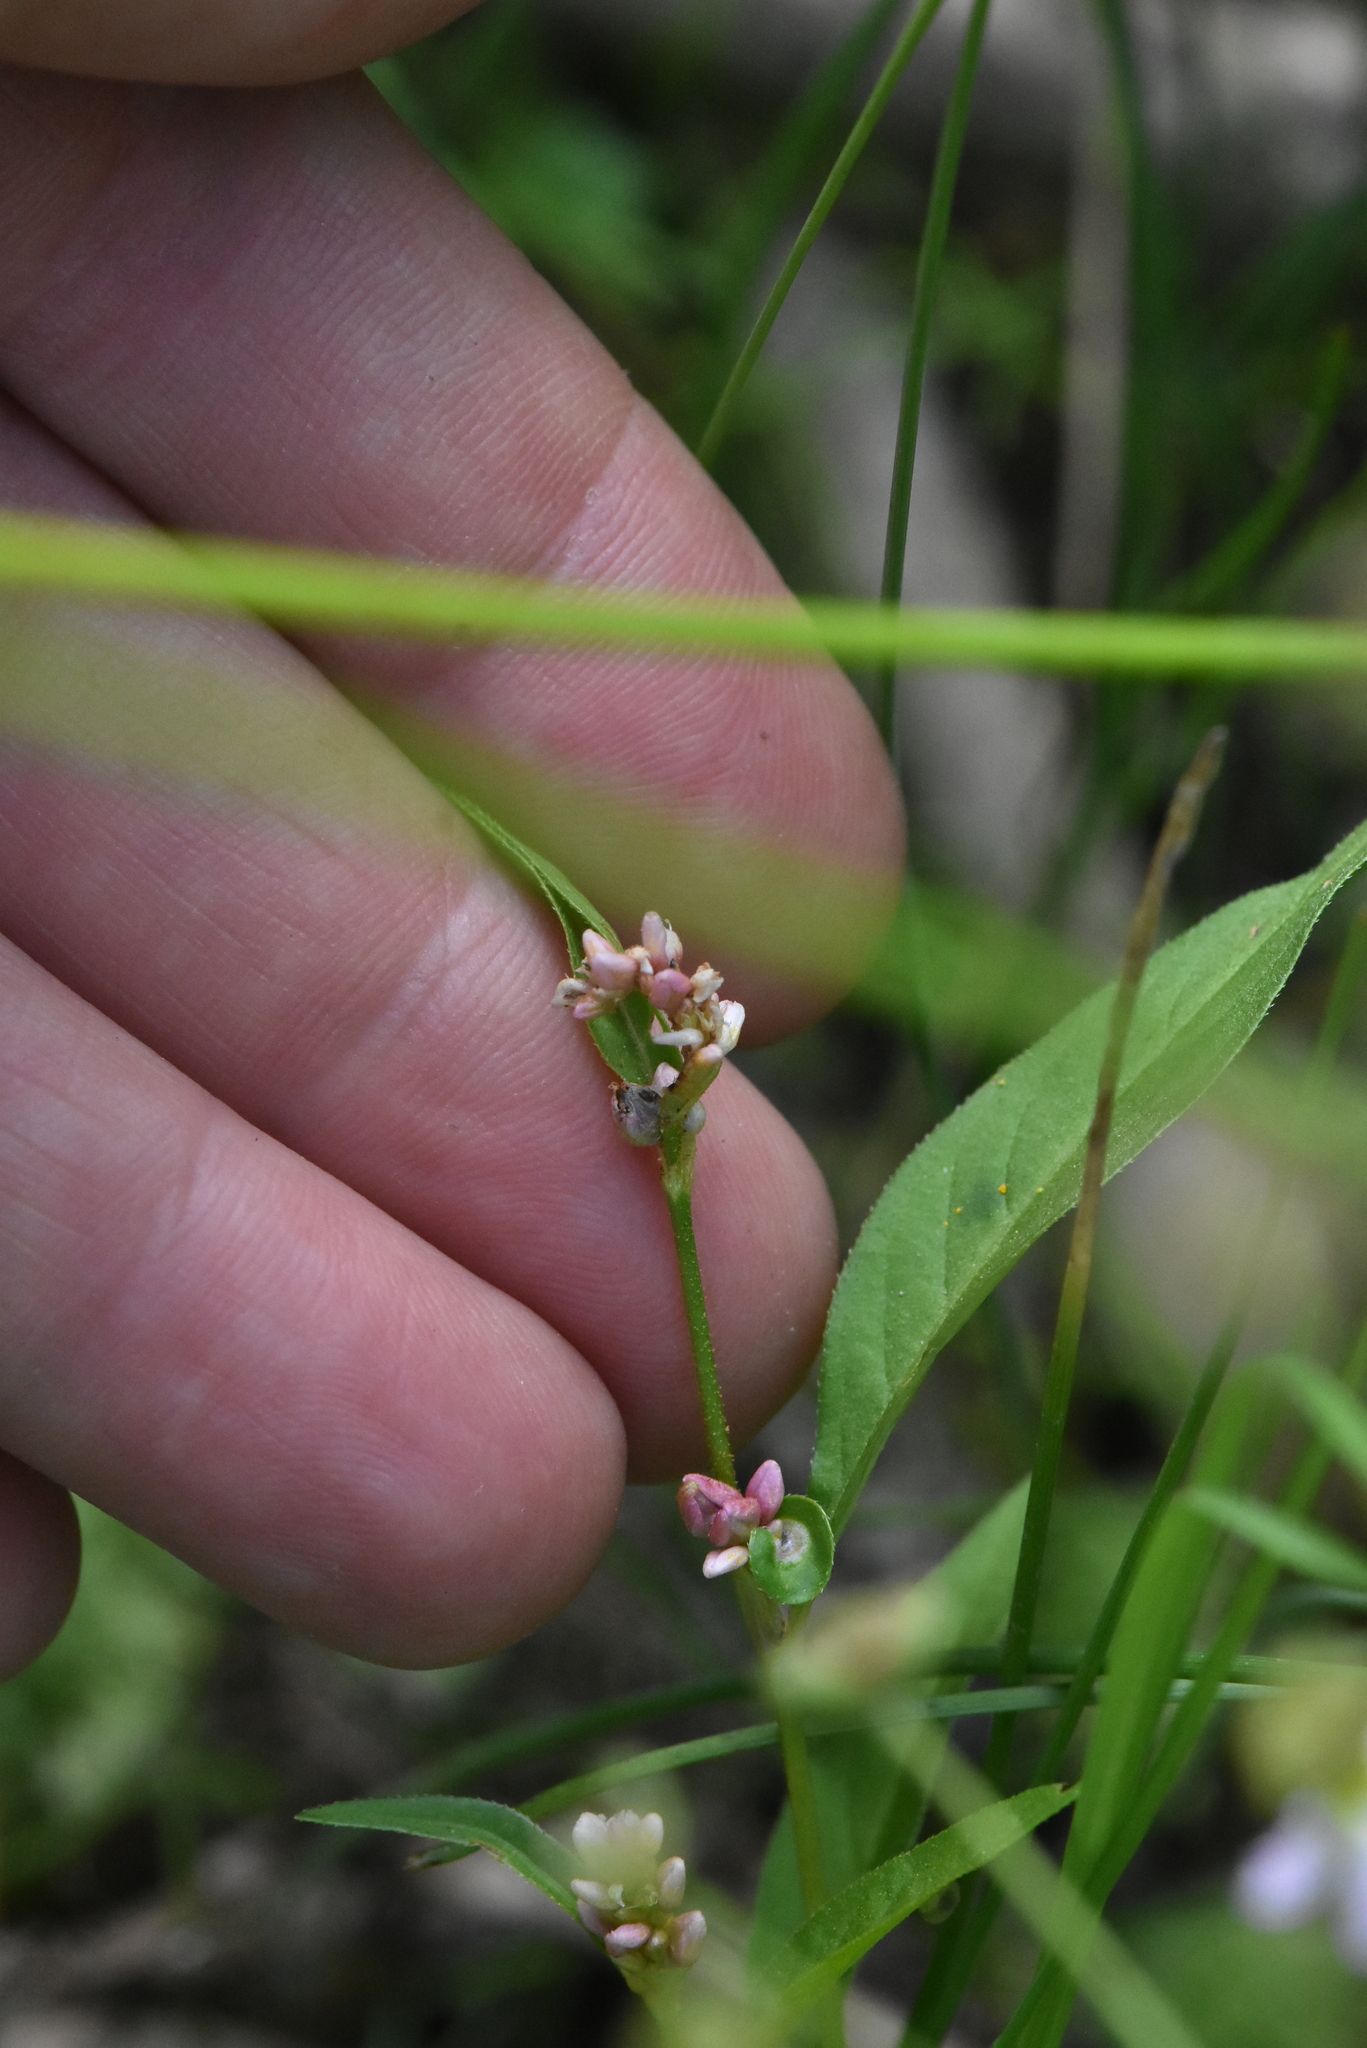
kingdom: Plantae
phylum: Tracheophyta
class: Magnoliopsida
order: Caryophyllales
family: Polygonaceae
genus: Persicaria
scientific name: Persicaria minor
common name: Small water-pepper
